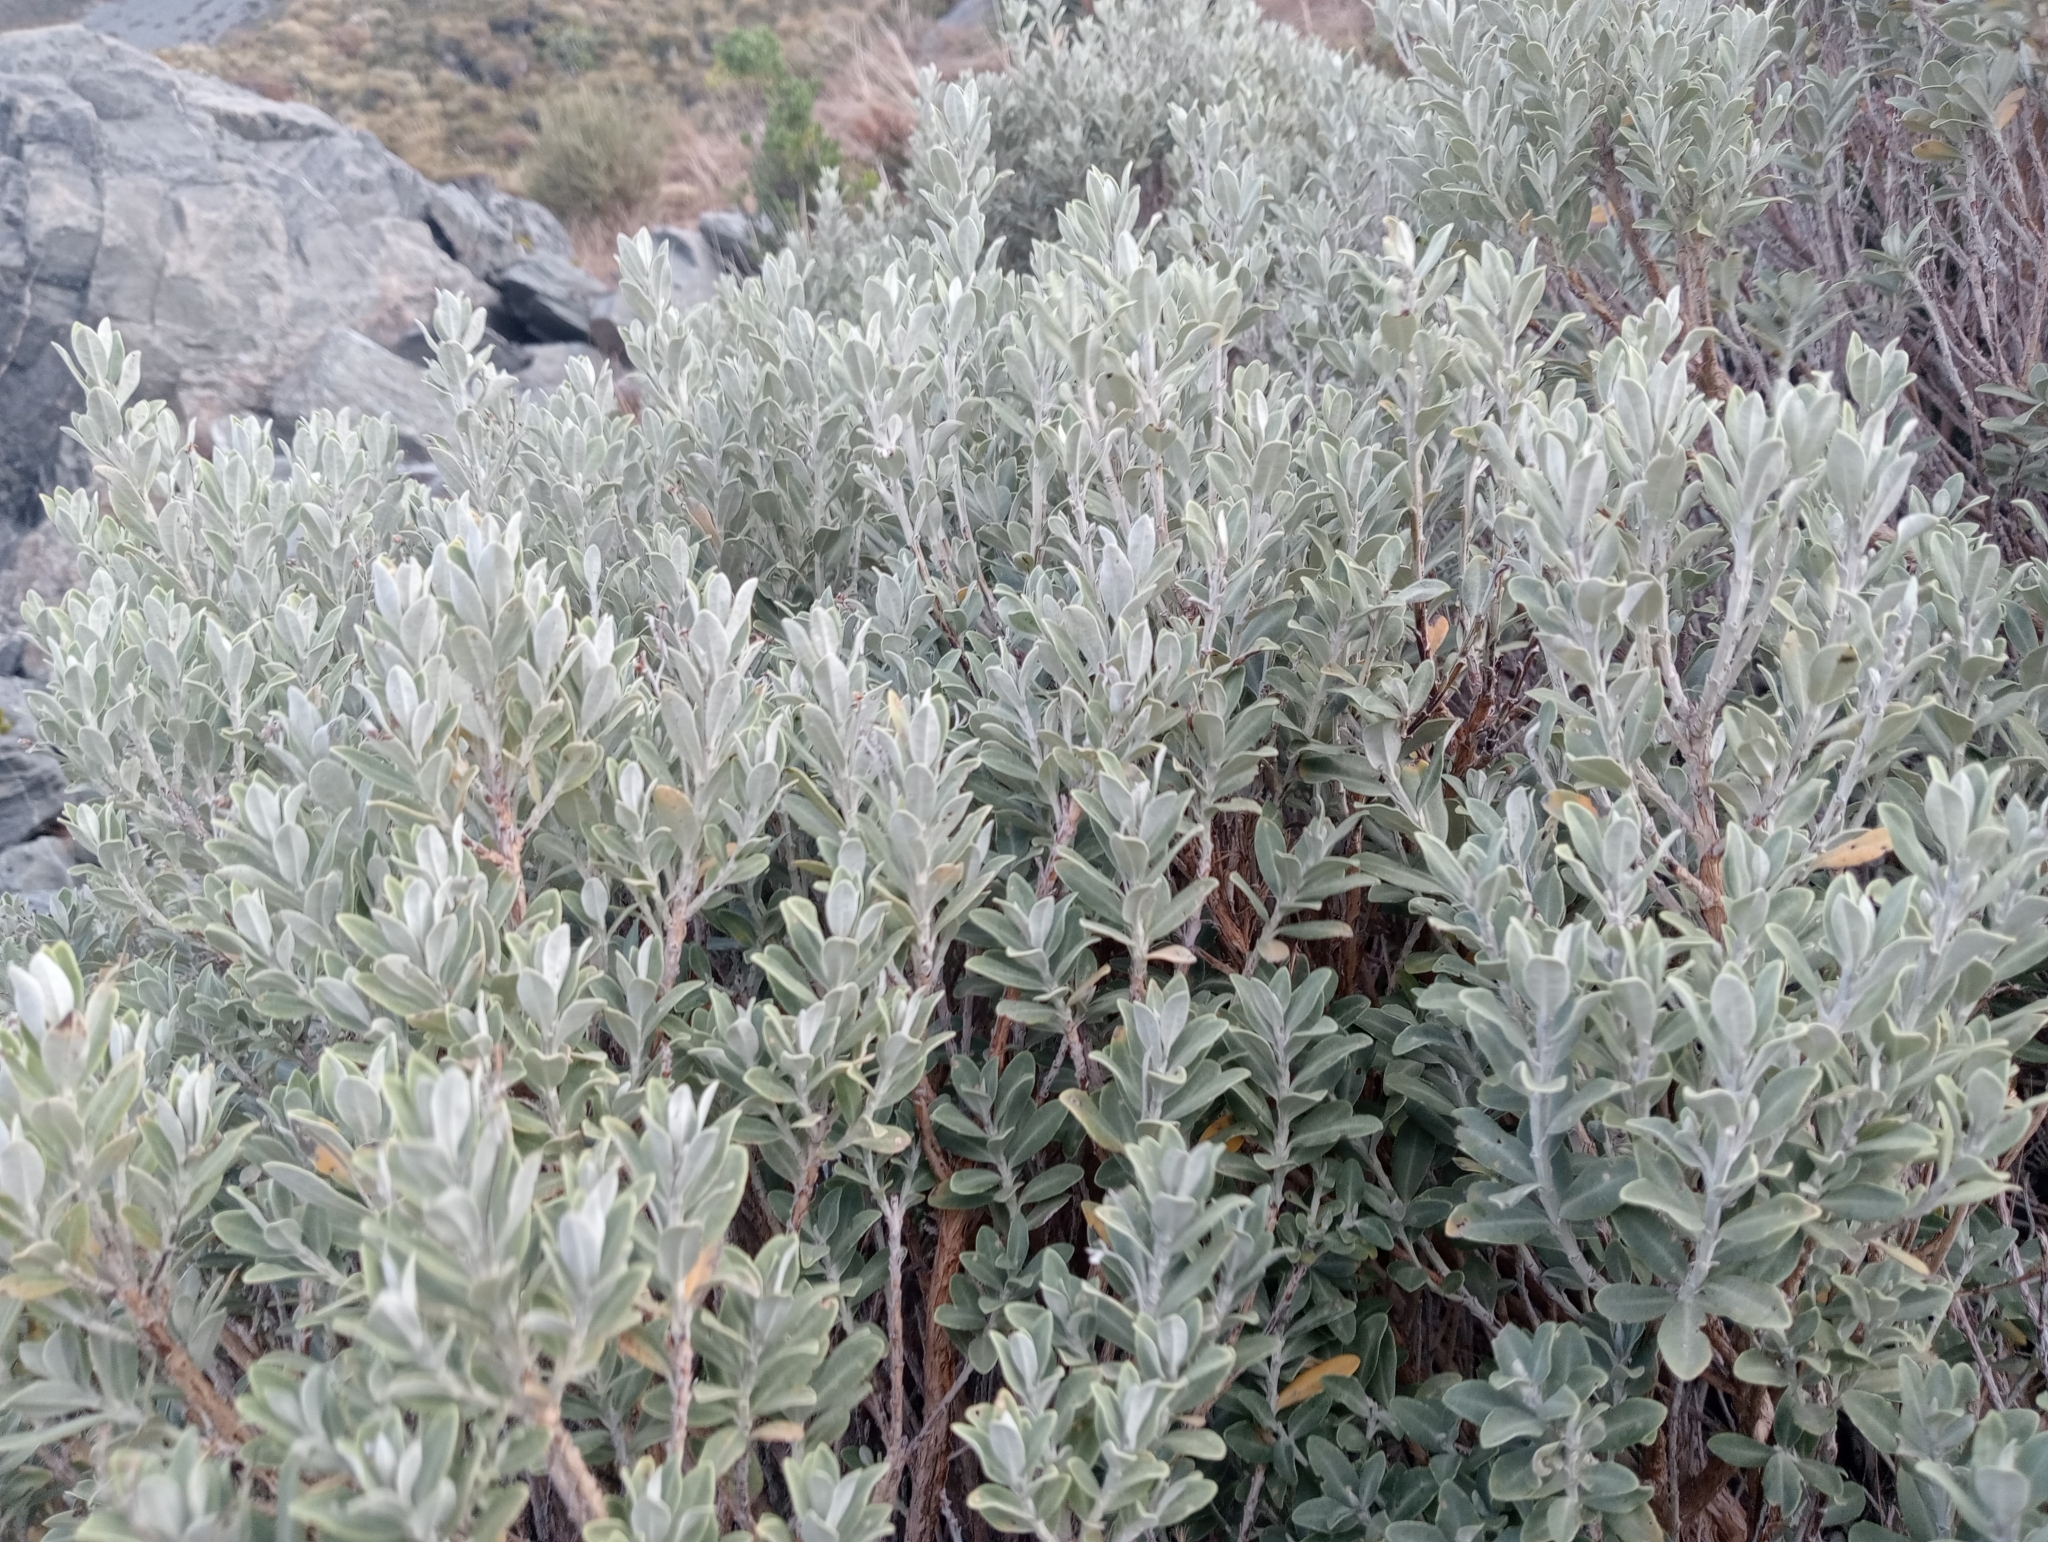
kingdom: Plantae
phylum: Tracheophyta
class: Magnoliopsida
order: Asterales
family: Asteraceae
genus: Olearia
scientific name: Olearia moschata
